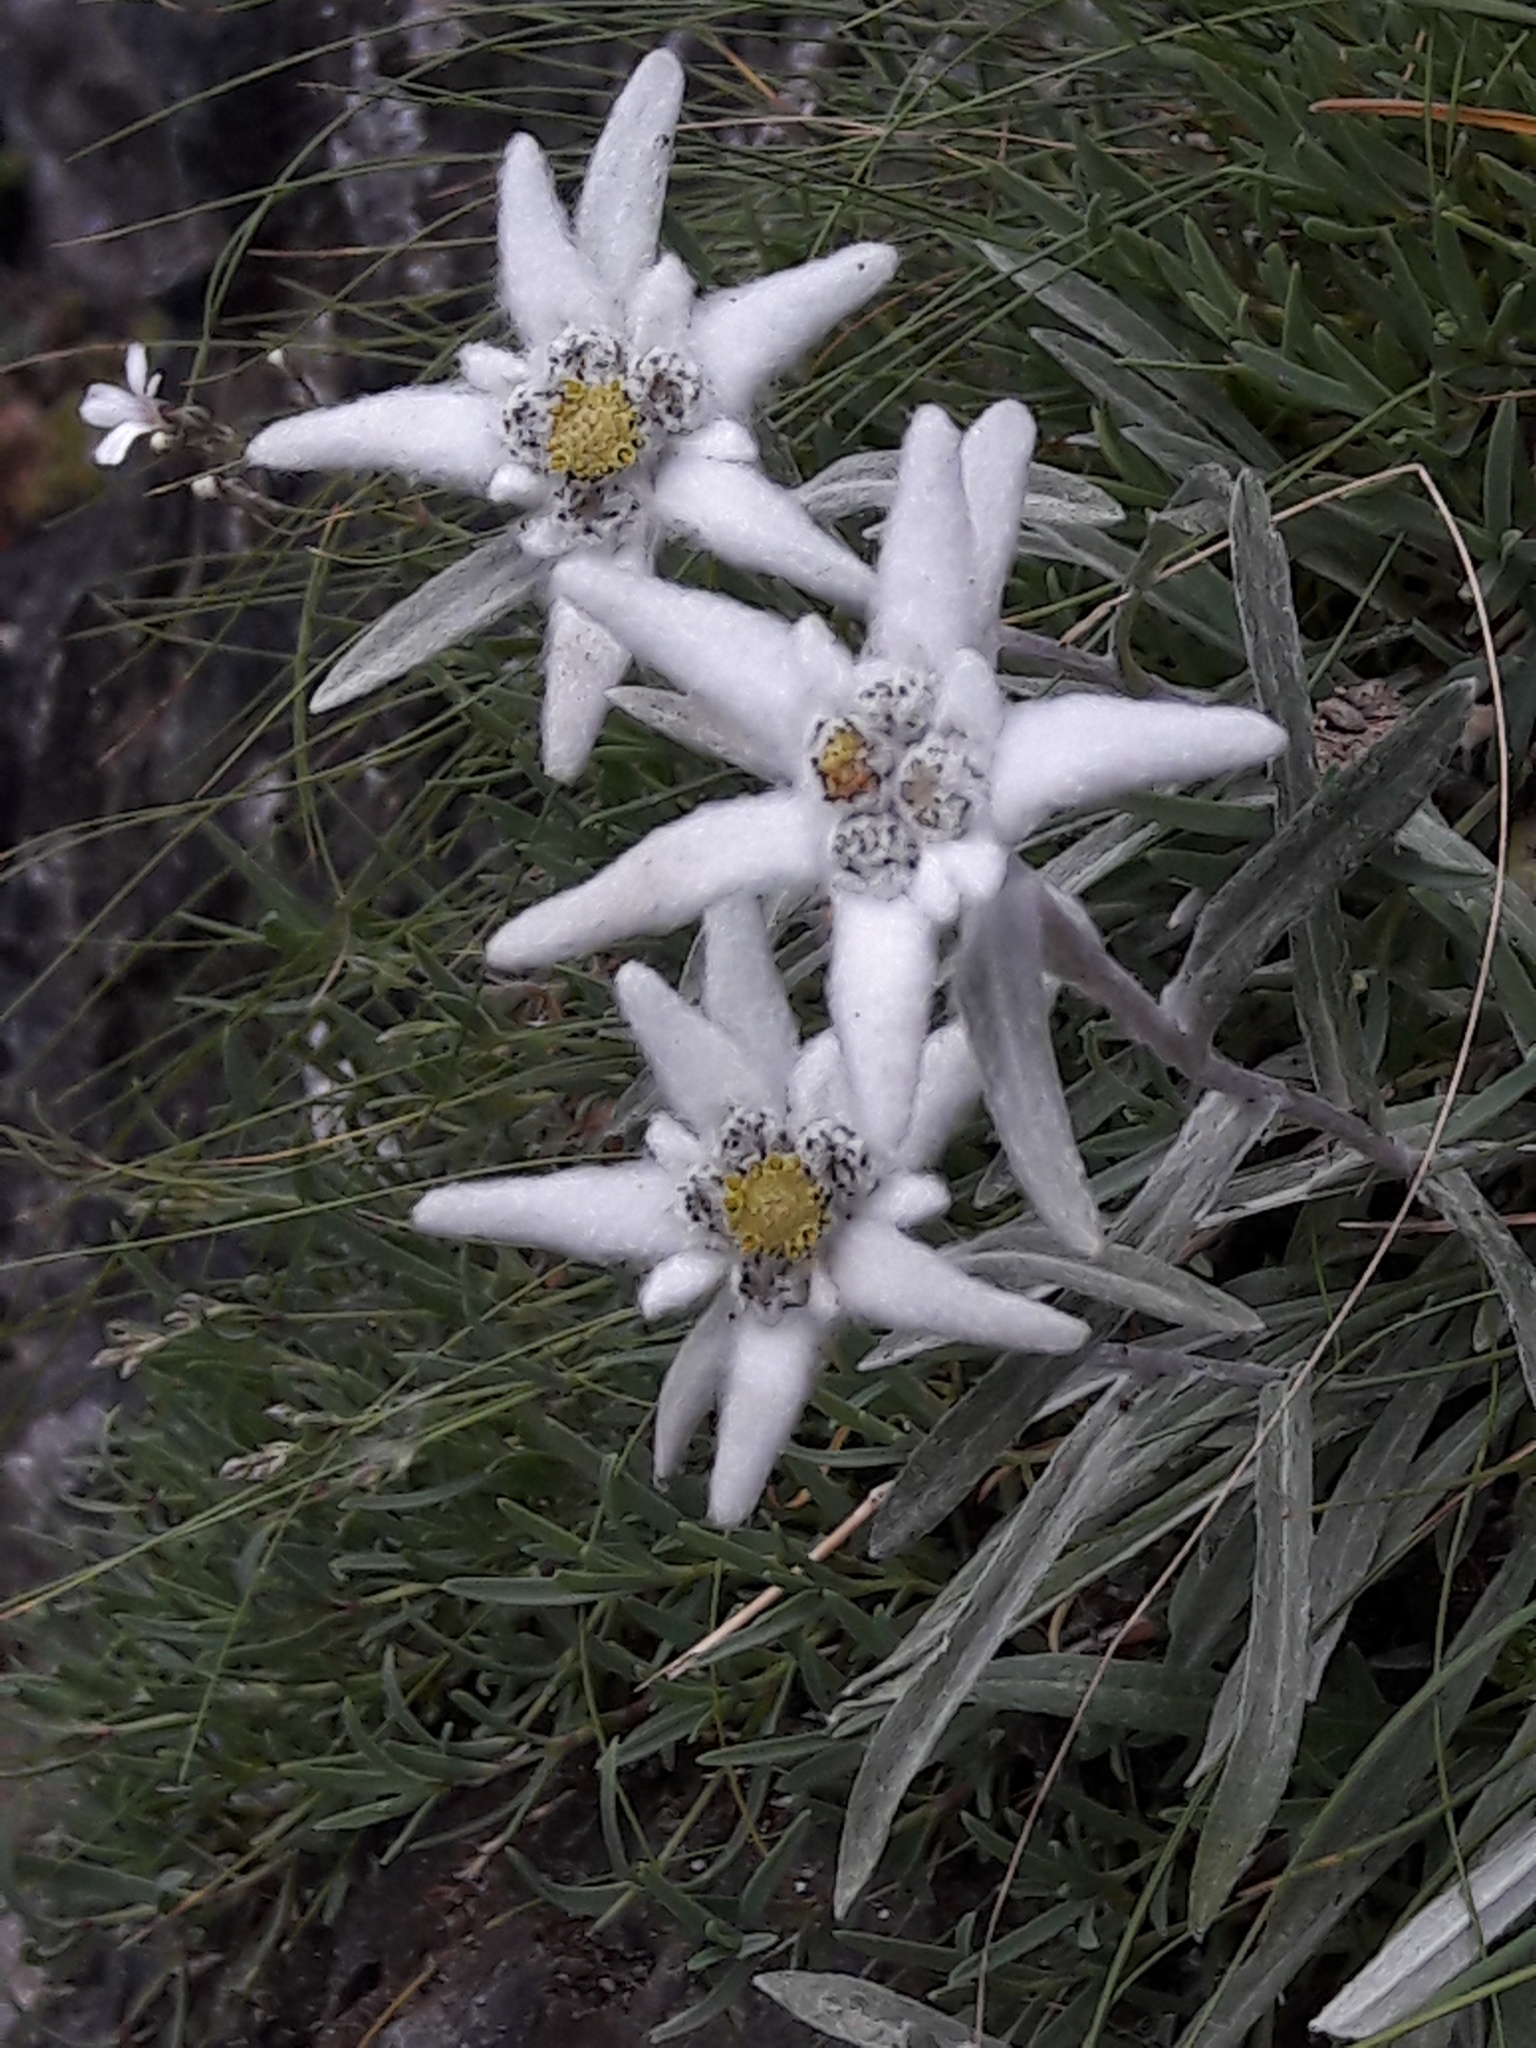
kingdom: Plantae
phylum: Tracheophyta
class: Magnoliopsida
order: Asterales
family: Asteraceae
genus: Leontopodium
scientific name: Leontopodium nivale
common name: Edelweiss
